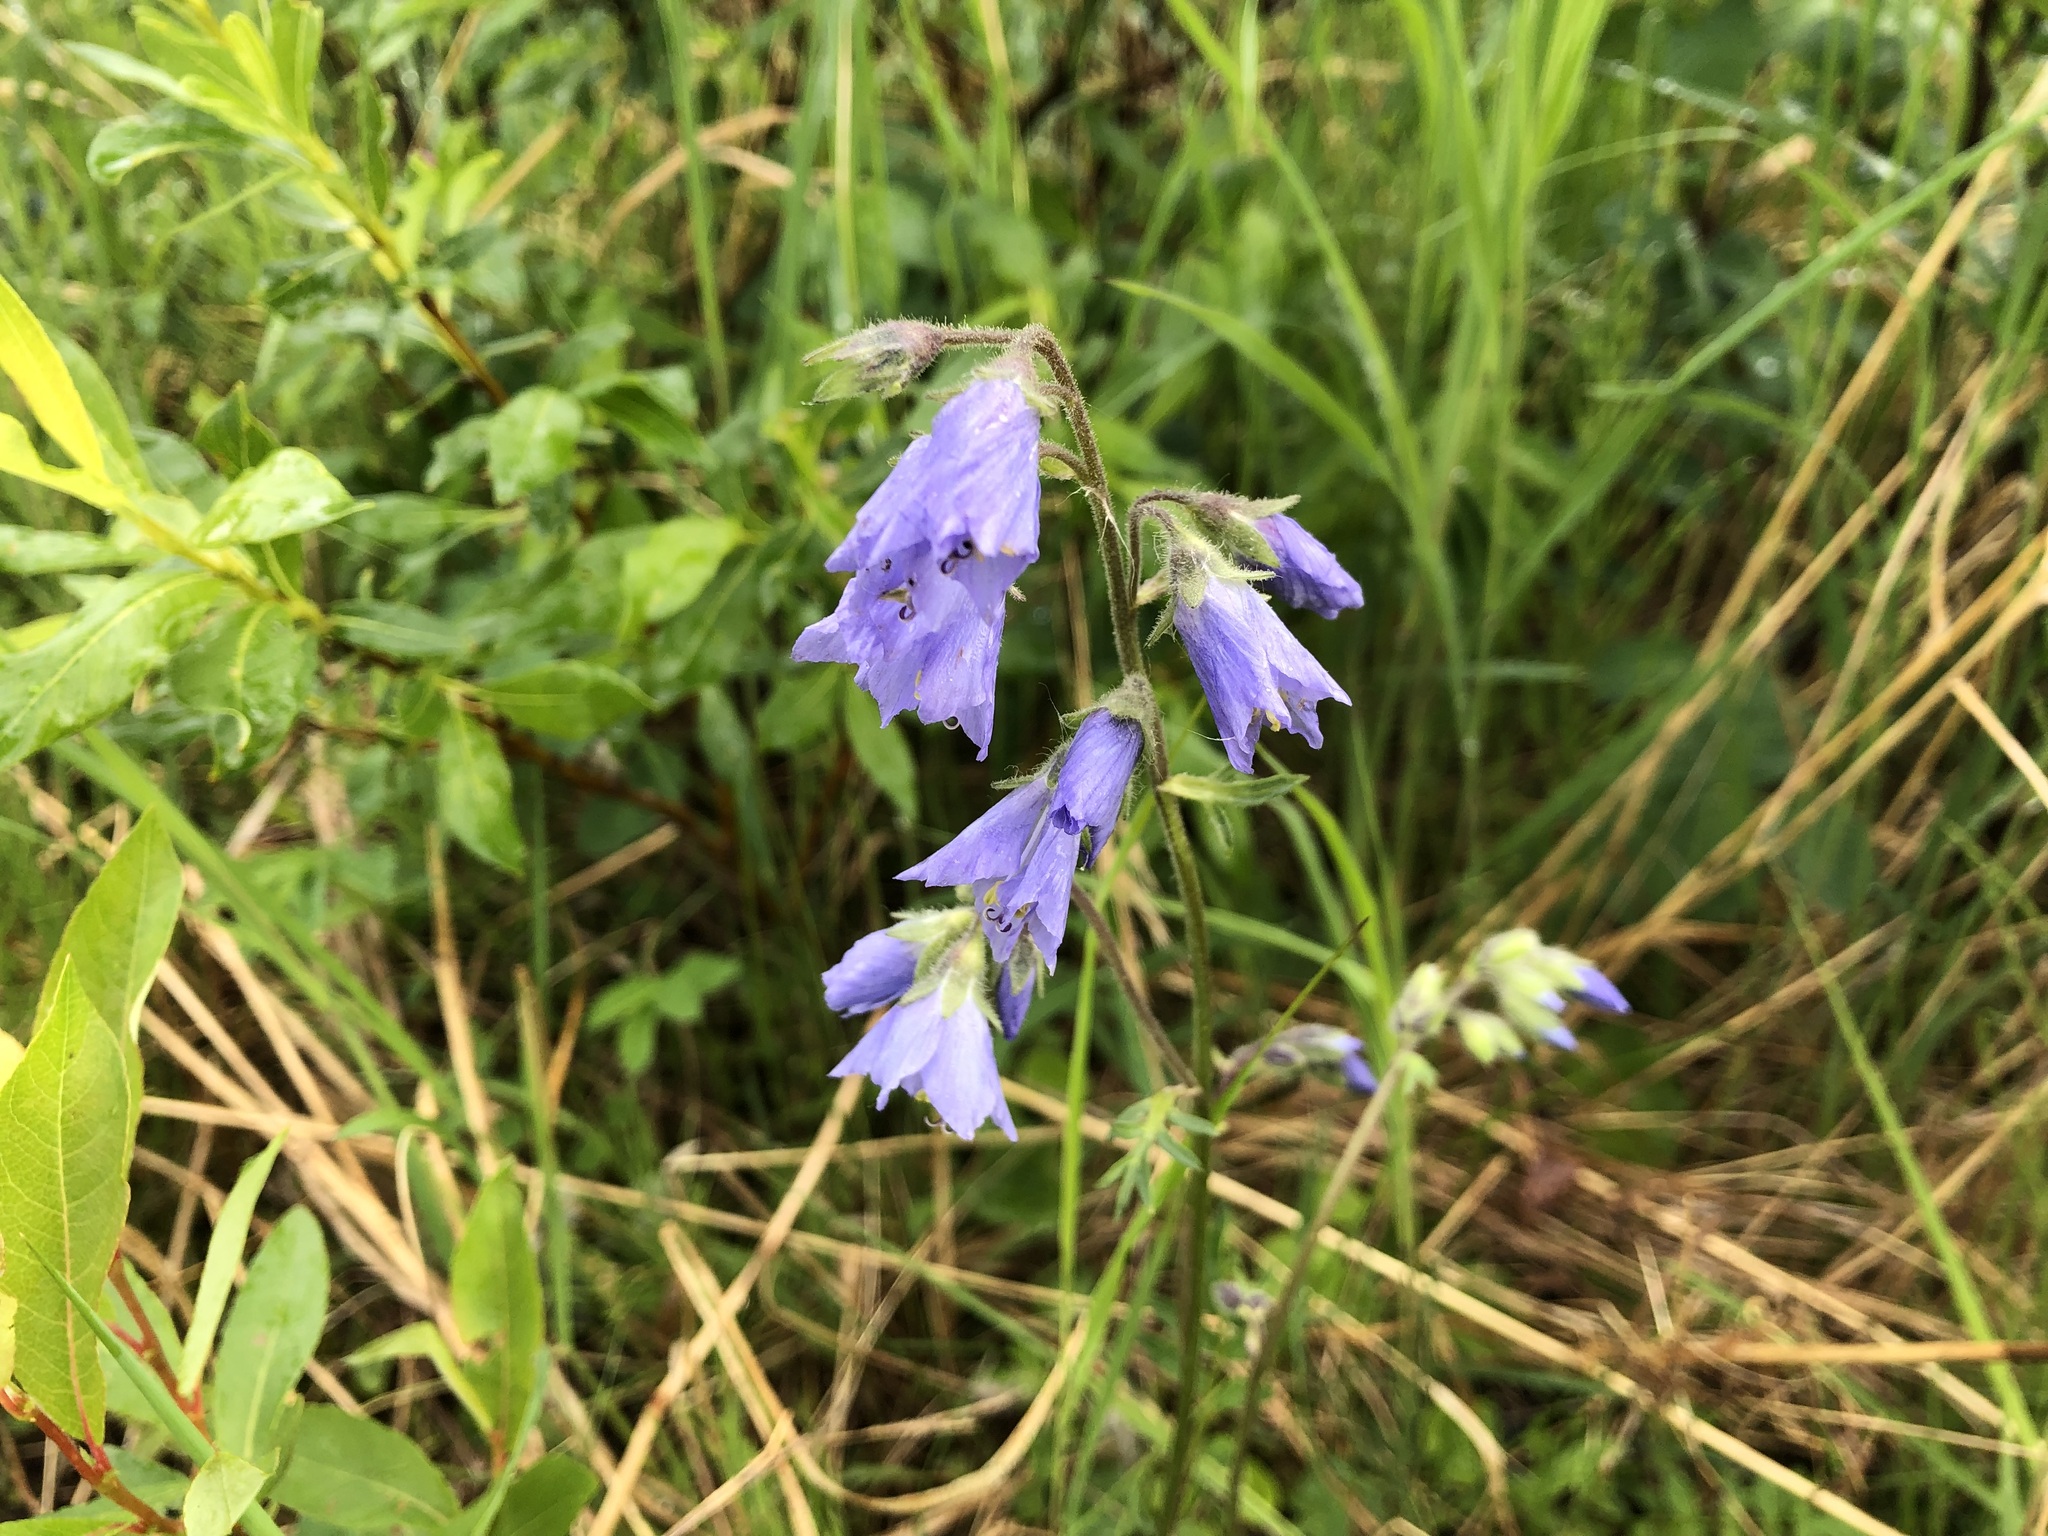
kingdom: Plantae
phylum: Tracheophyta
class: Magnoliopsida
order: Ericales
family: Polemoniaceae
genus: Polemonium
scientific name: Polemonium acutiflorum
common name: Tall jacob's-ladder
